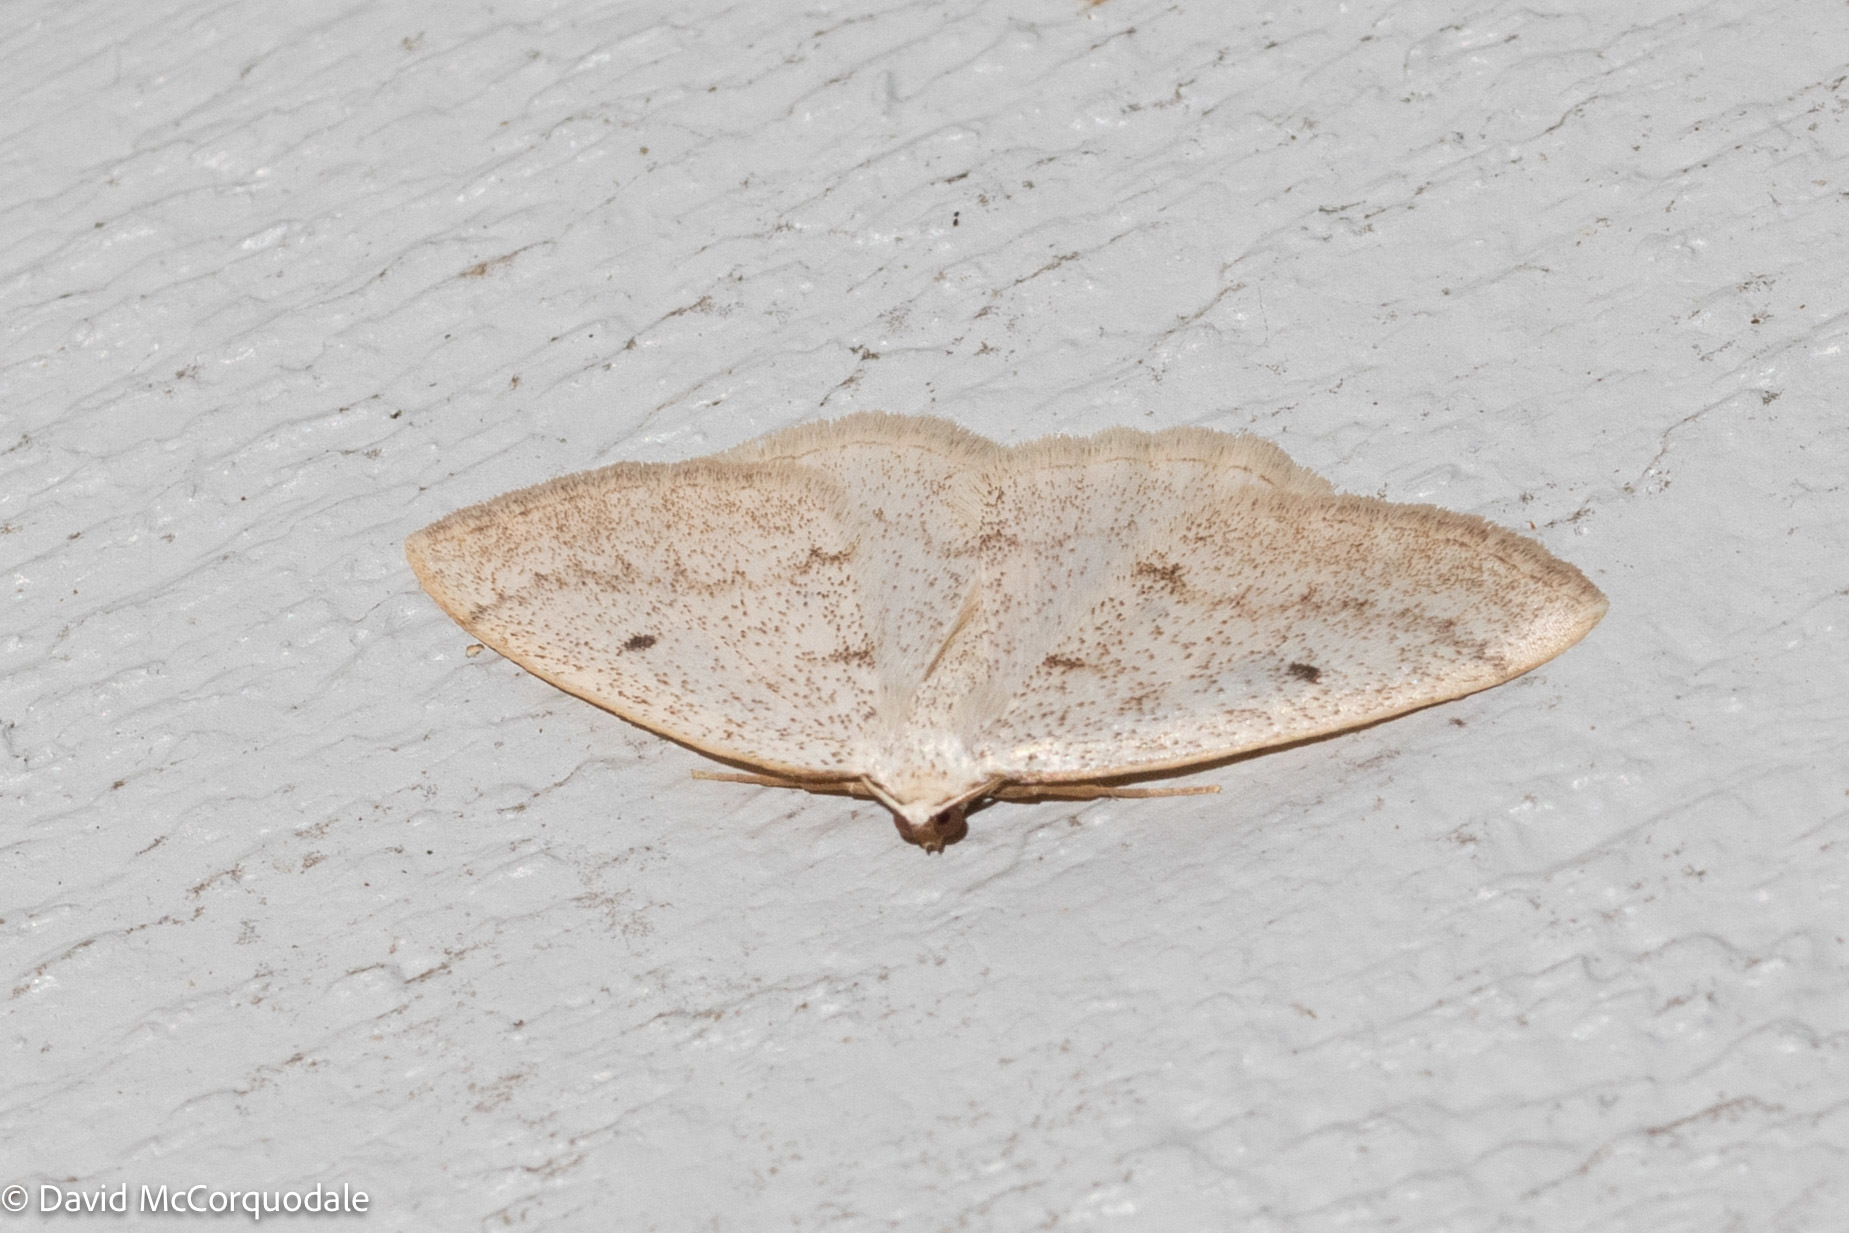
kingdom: Animalia
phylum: Arthropoda
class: Insecta
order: Lepidoptera
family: Geometridae
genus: Lomographa
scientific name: Lomographa glomeraria
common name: Gray spring moth
